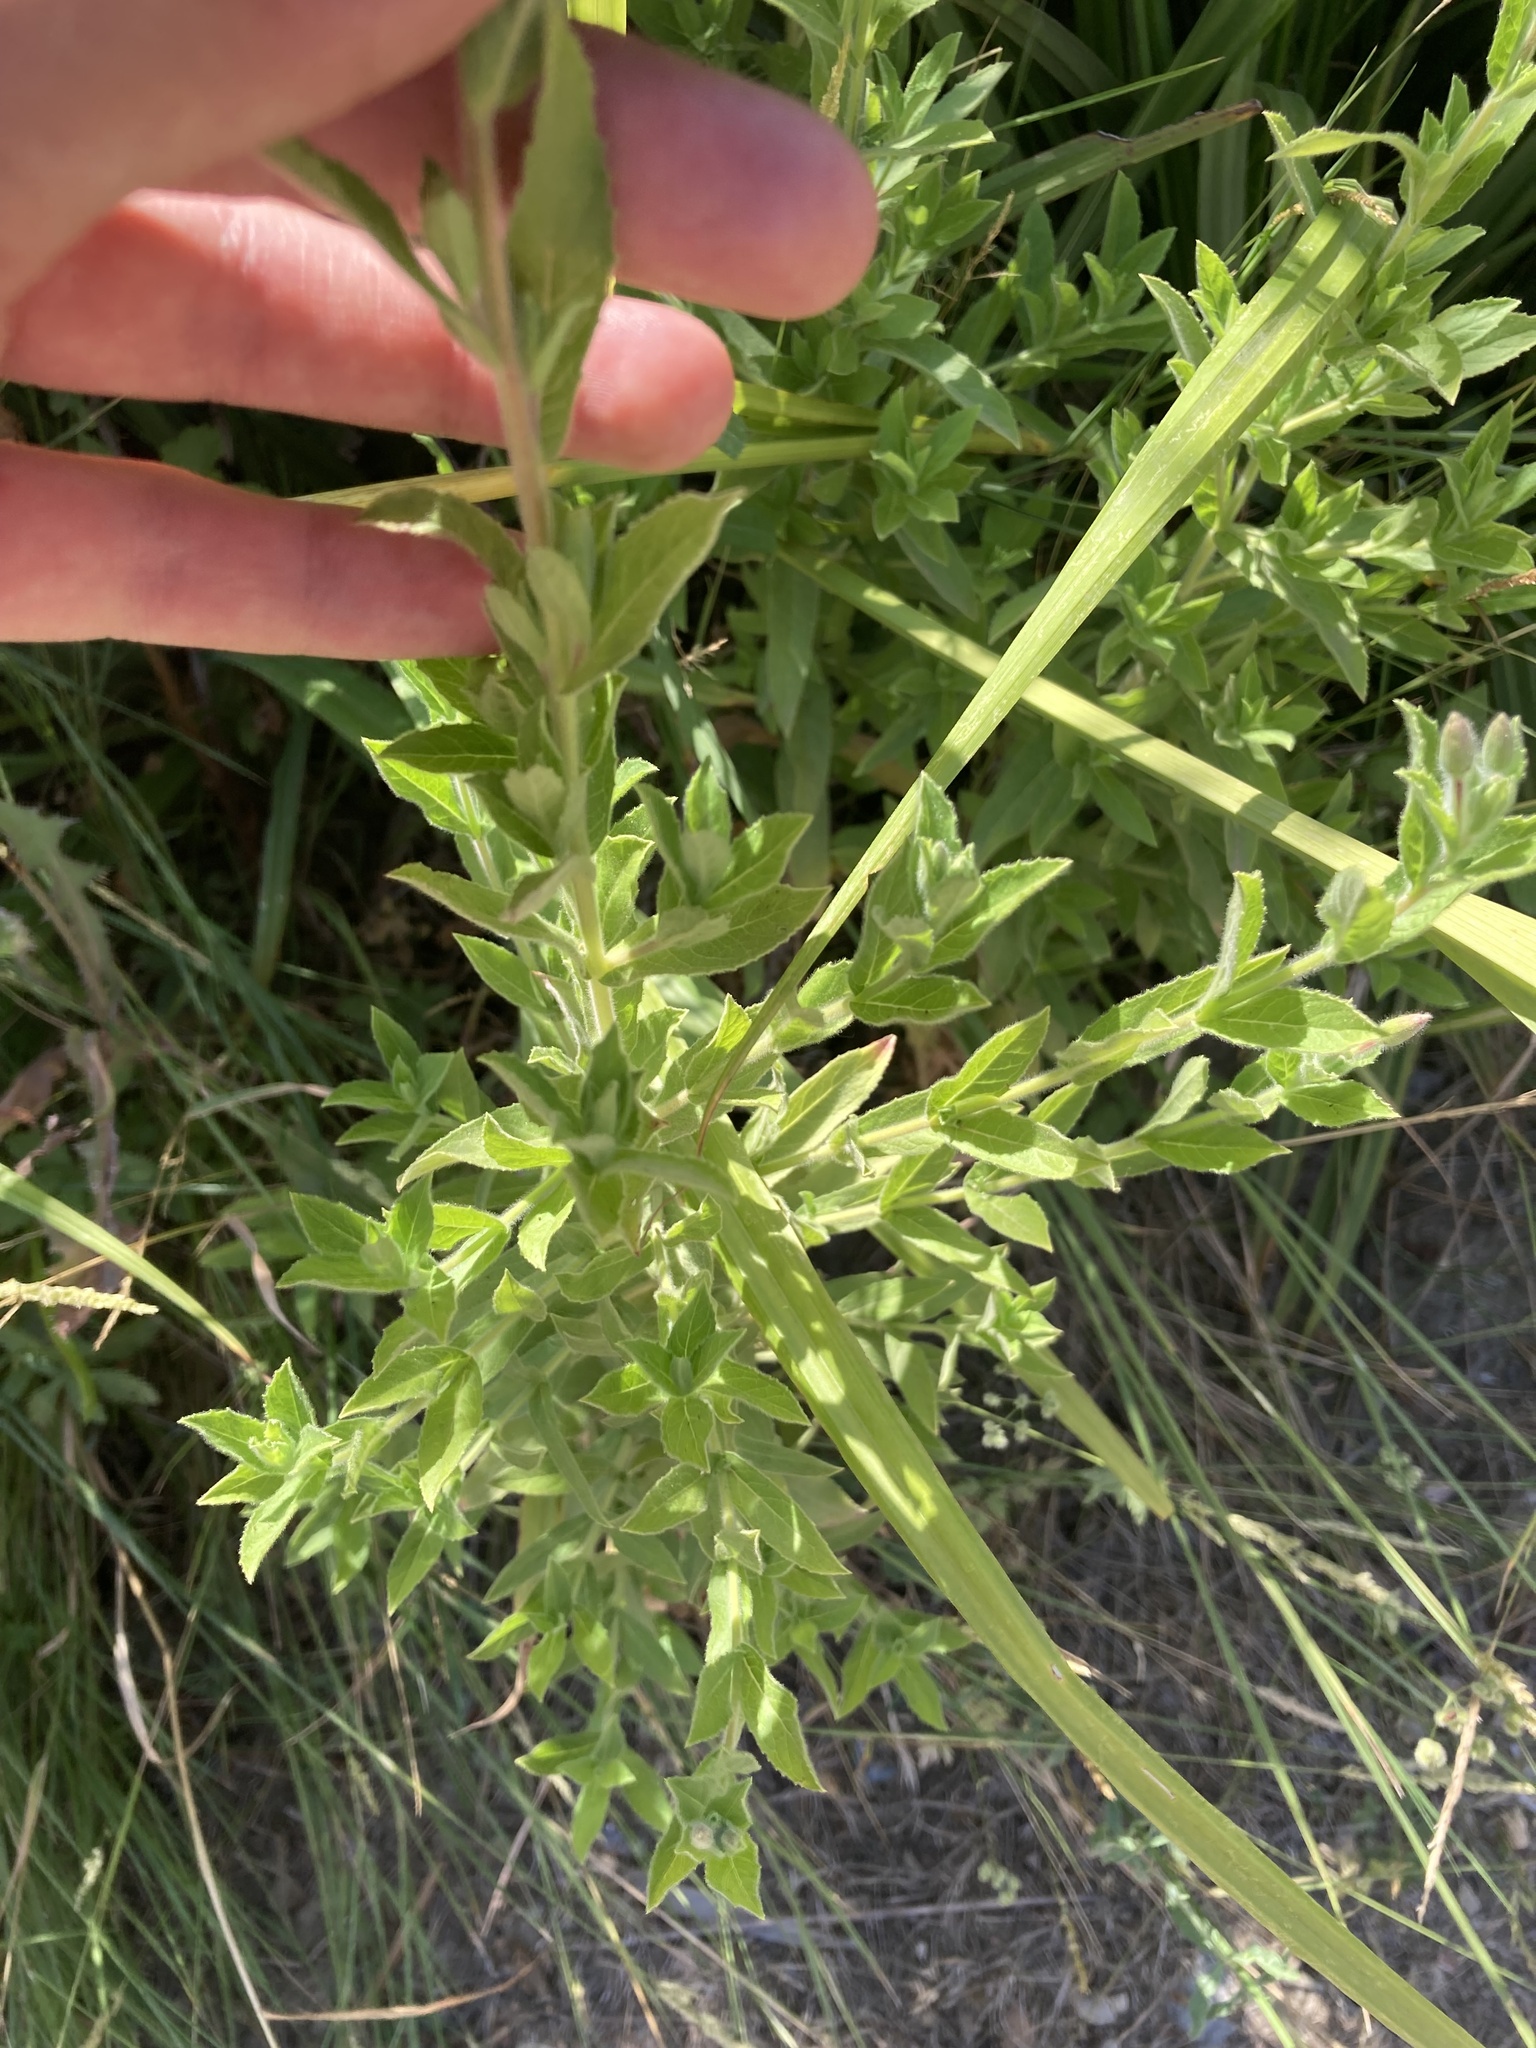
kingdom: Plantae
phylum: Tracheophyta
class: Magnoliopsida
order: Myrtales
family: Onagraceae
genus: Epilobium
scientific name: Epilobium hirsutum
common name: Great willowherb
